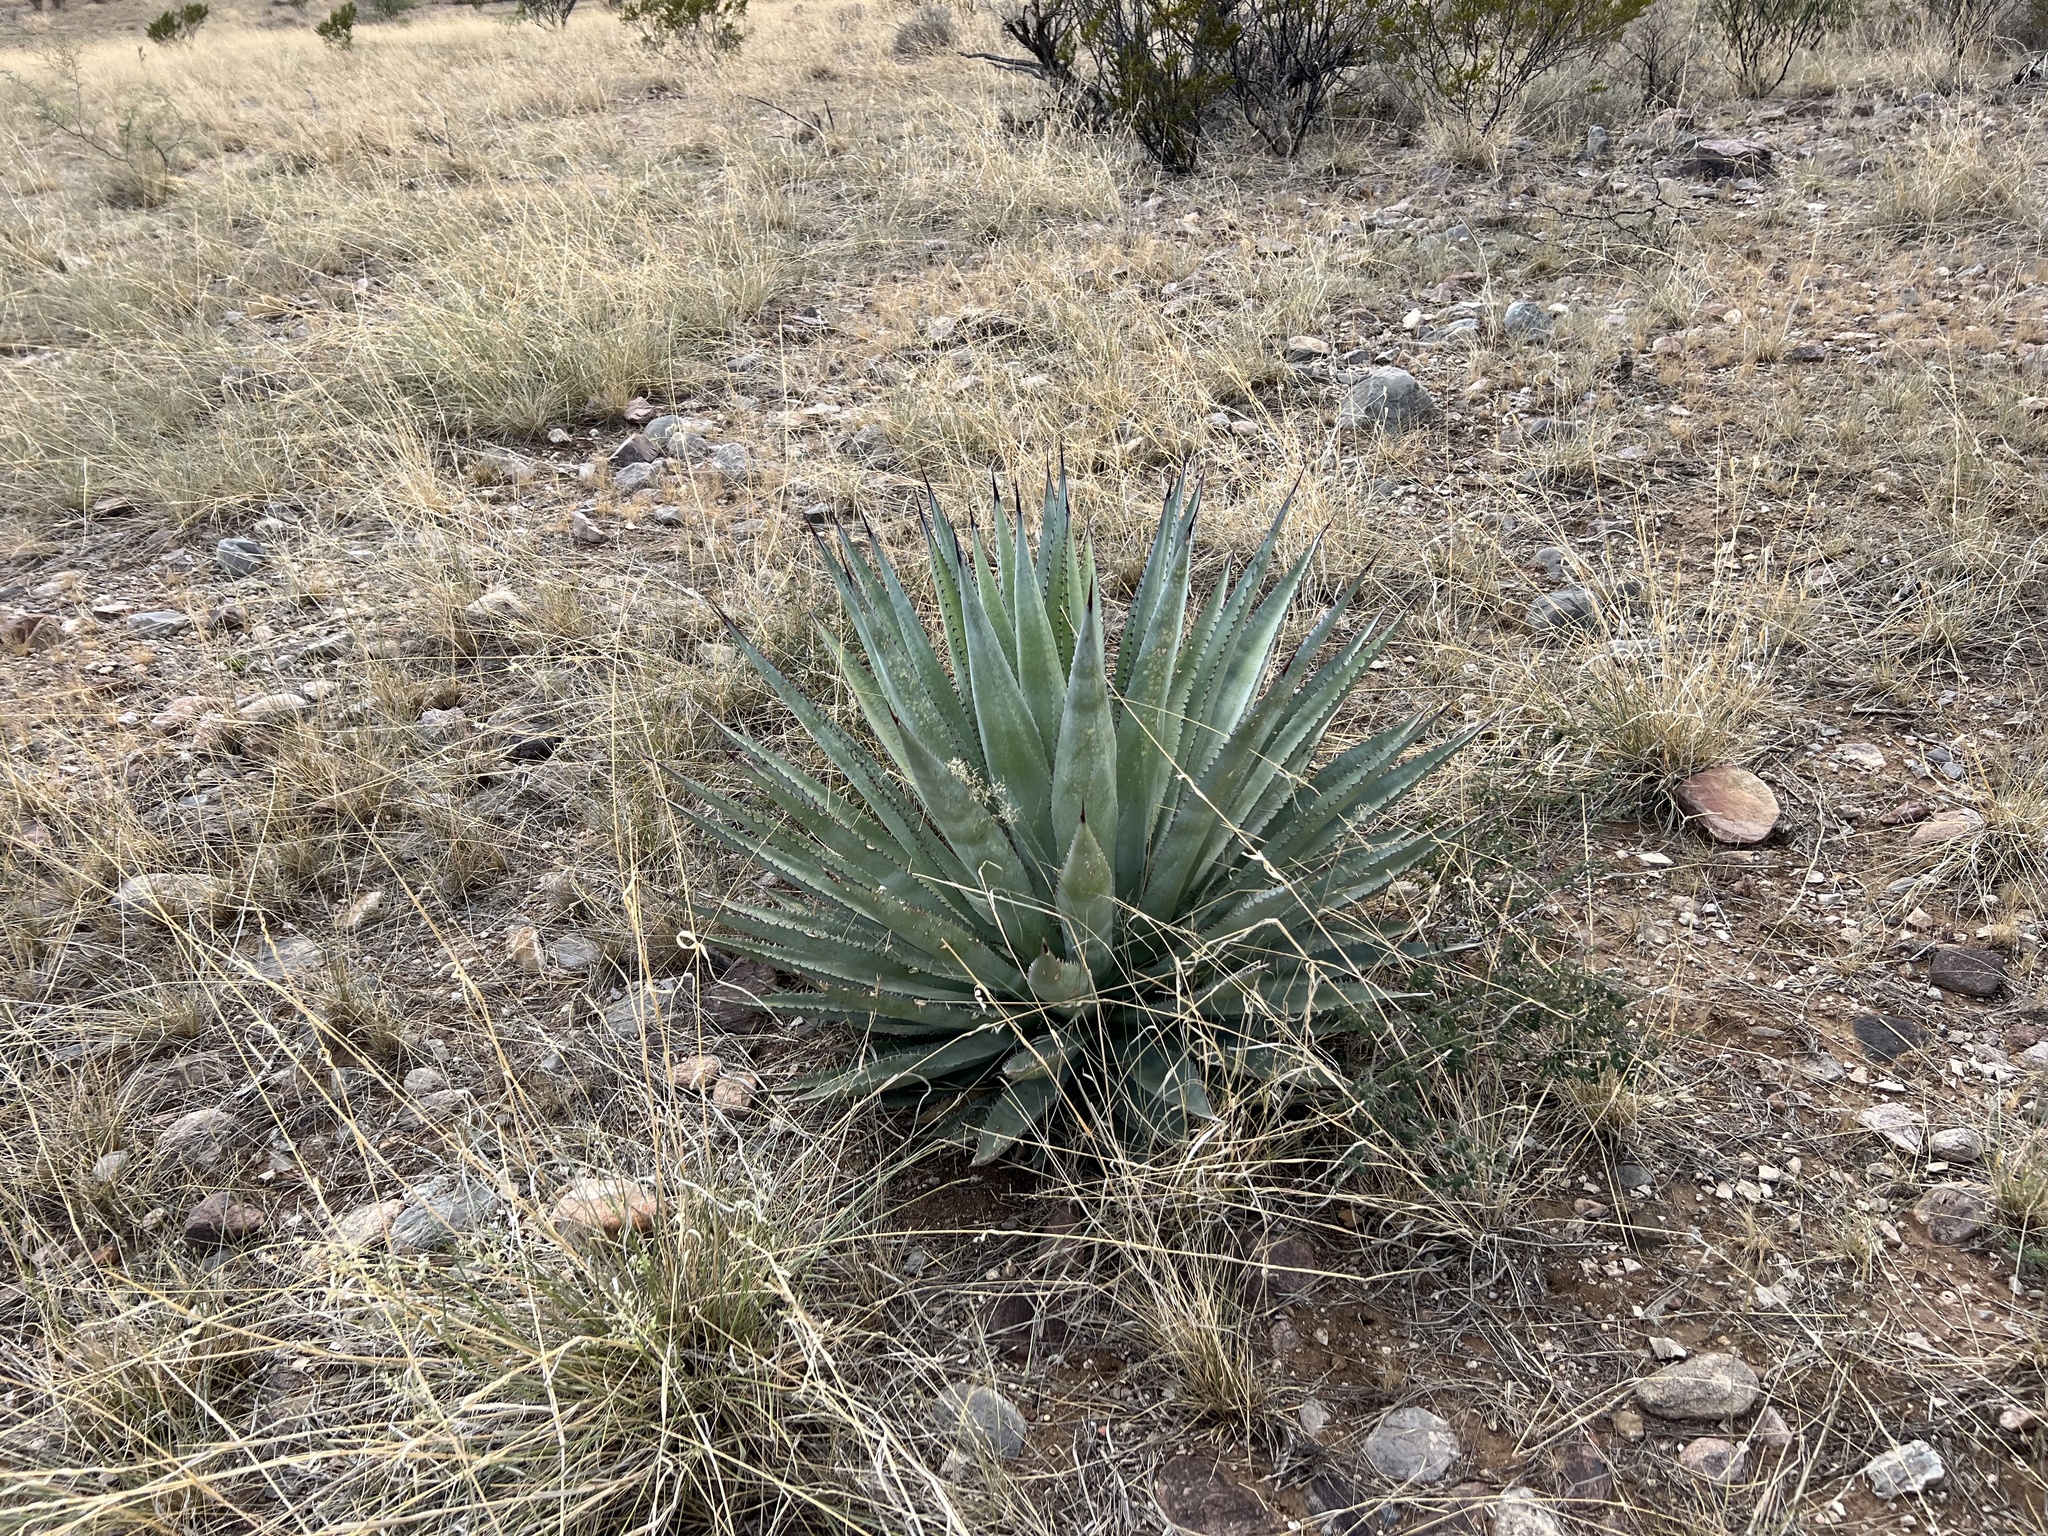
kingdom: Plantae
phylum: Tracheophyta
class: Liliopsida
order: Asparagales
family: Asparagaceae
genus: Agave
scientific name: Agave palmeri
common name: Palmer agave
